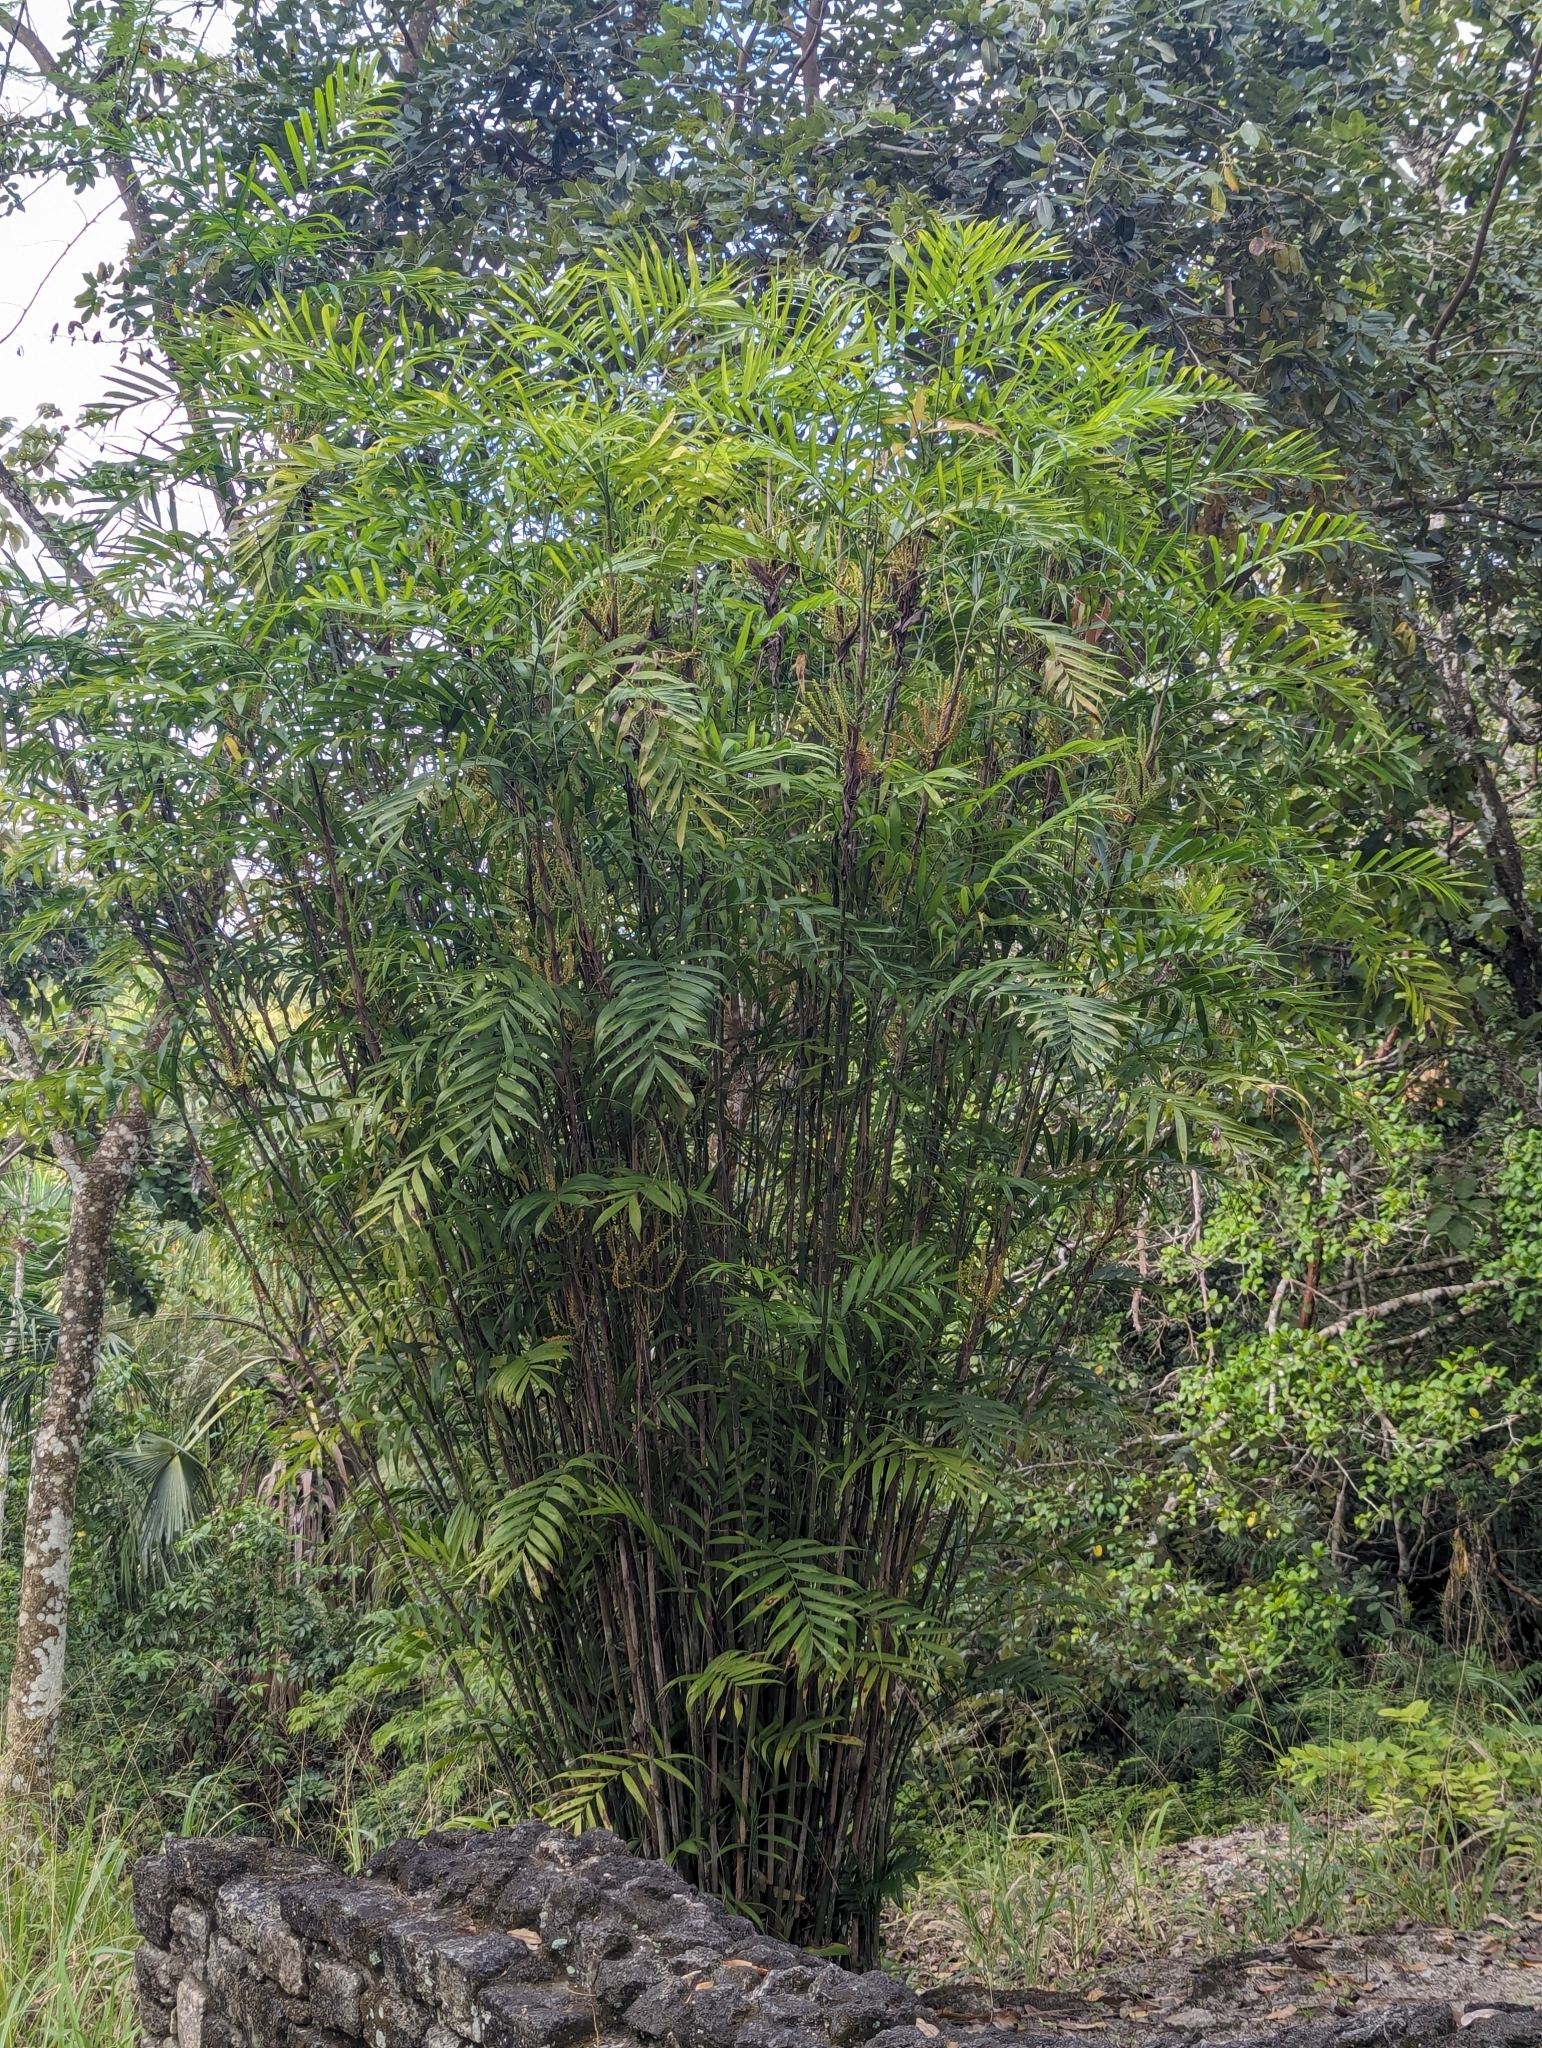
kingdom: Plantae
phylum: Tracheophyta
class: Liliopsida
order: Arecales
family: Arecaceae
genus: Chamaedorea
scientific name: Chamaedorea seifrizii
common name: Seifriz's chamaedorea
